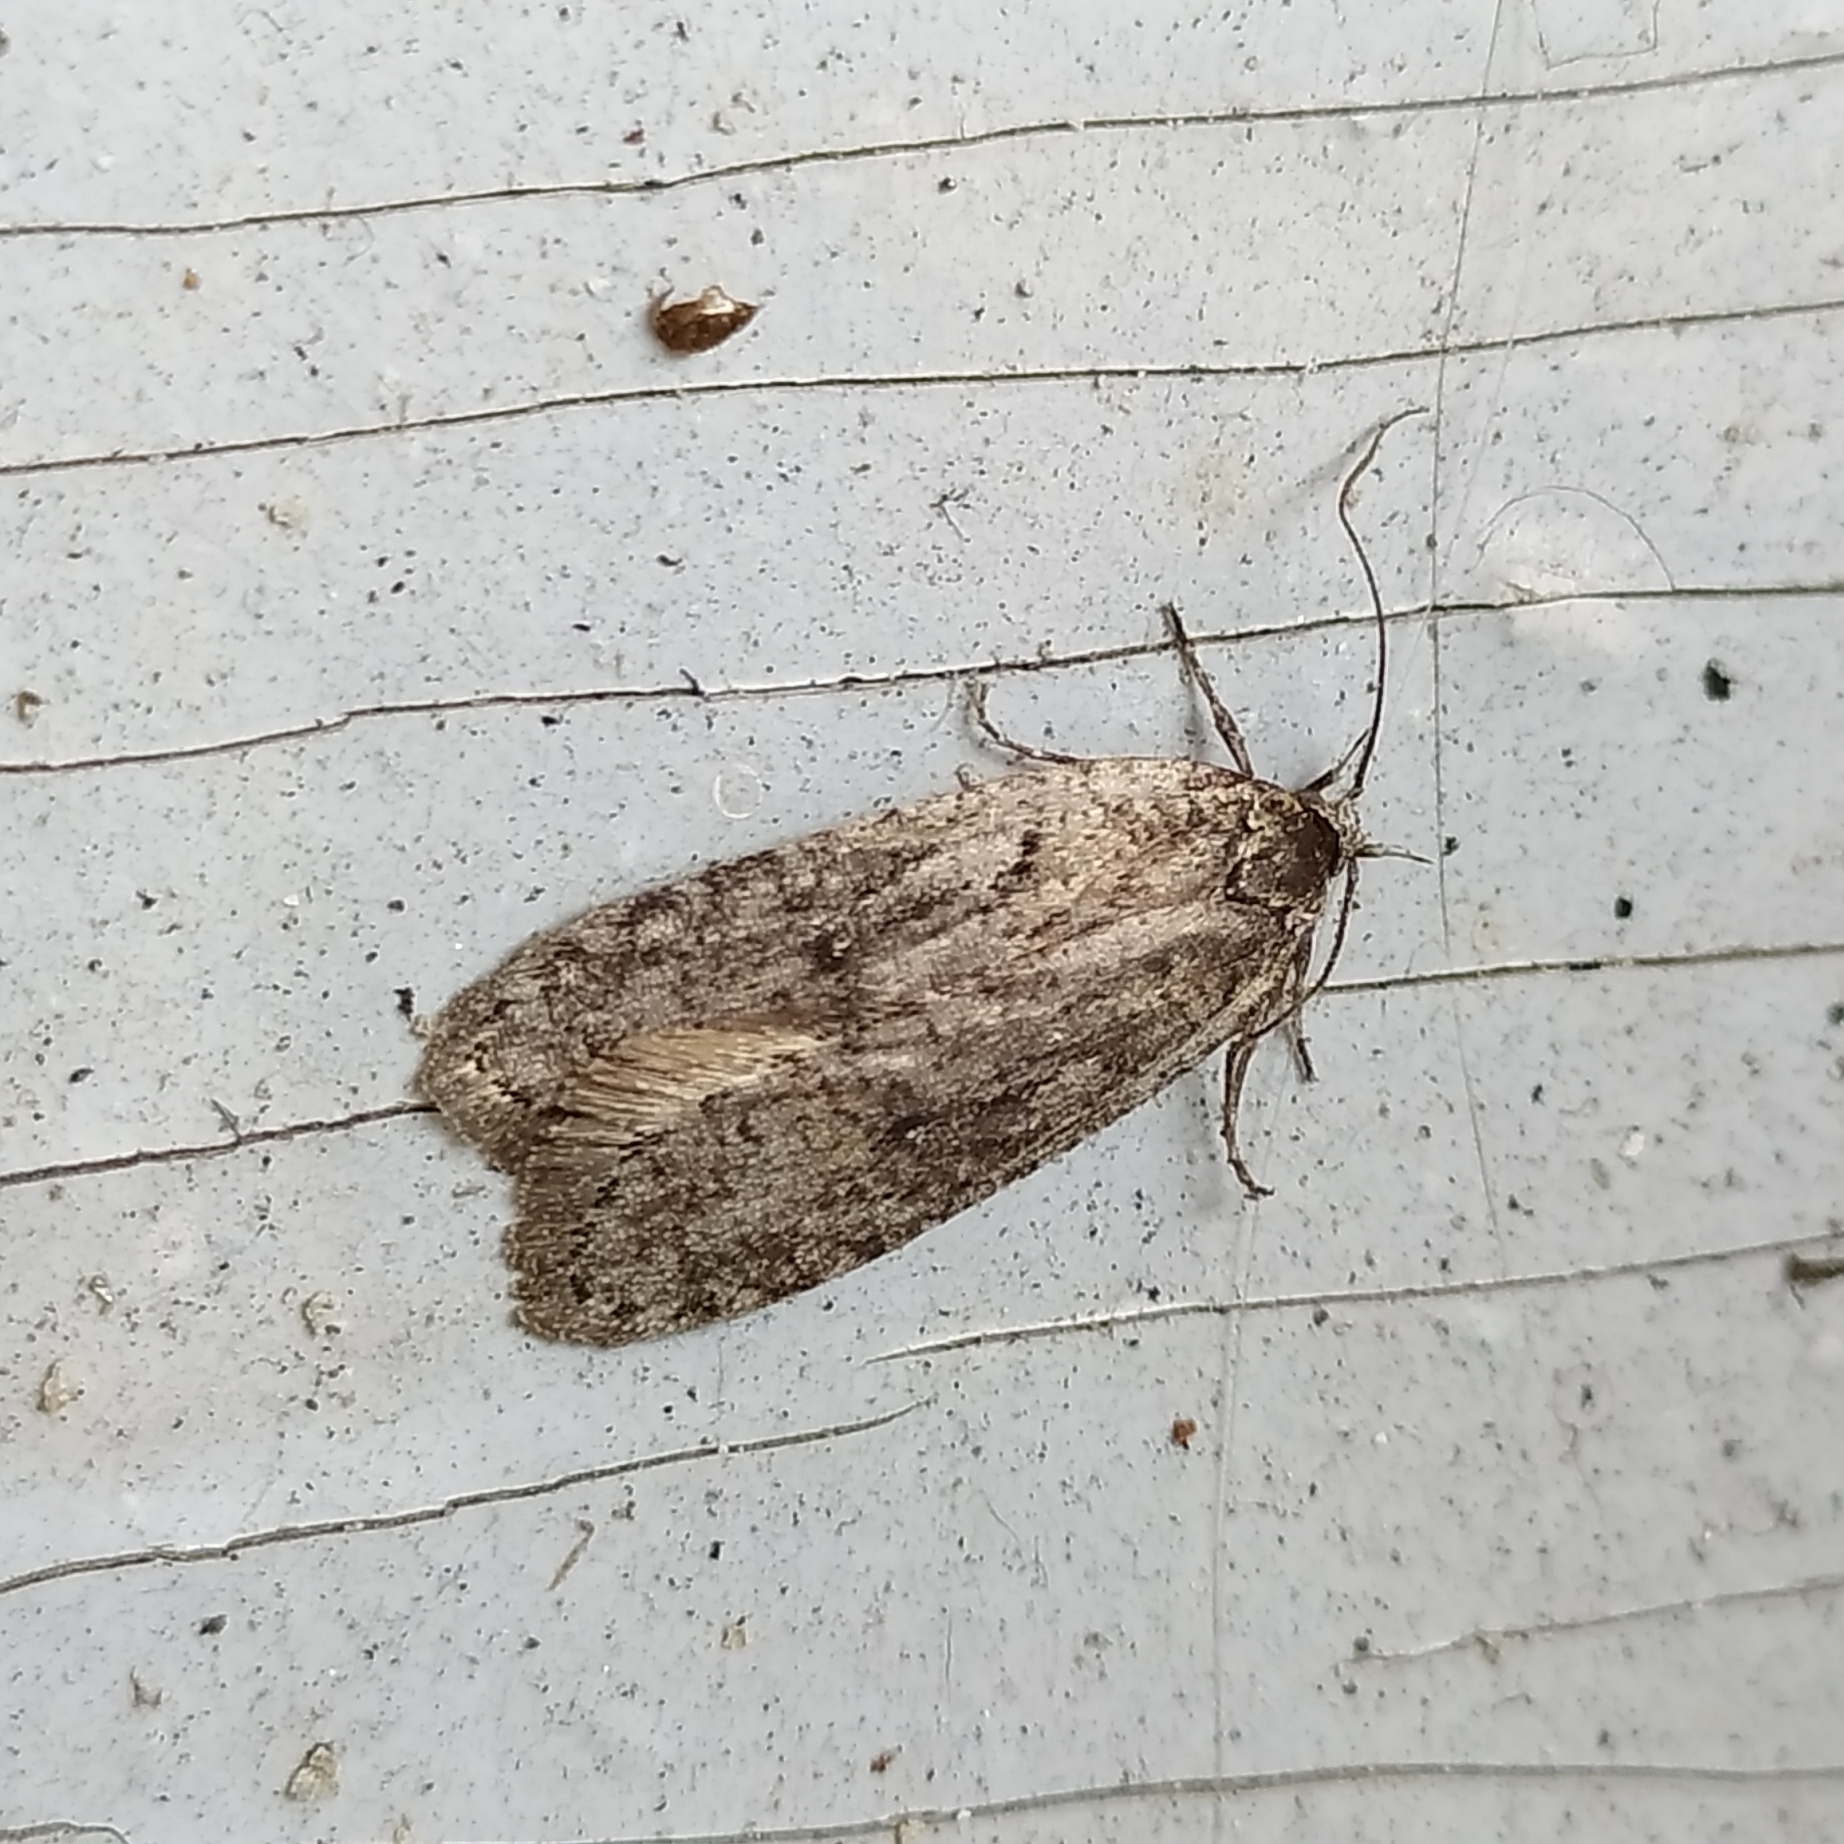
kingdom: Animalia
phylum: Arthropoda
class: Insecta
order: Lepidoptera
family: Depressariidae
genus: Exaeretia
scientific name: Exaeretia ciniflonella
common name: Scotch flat-body
